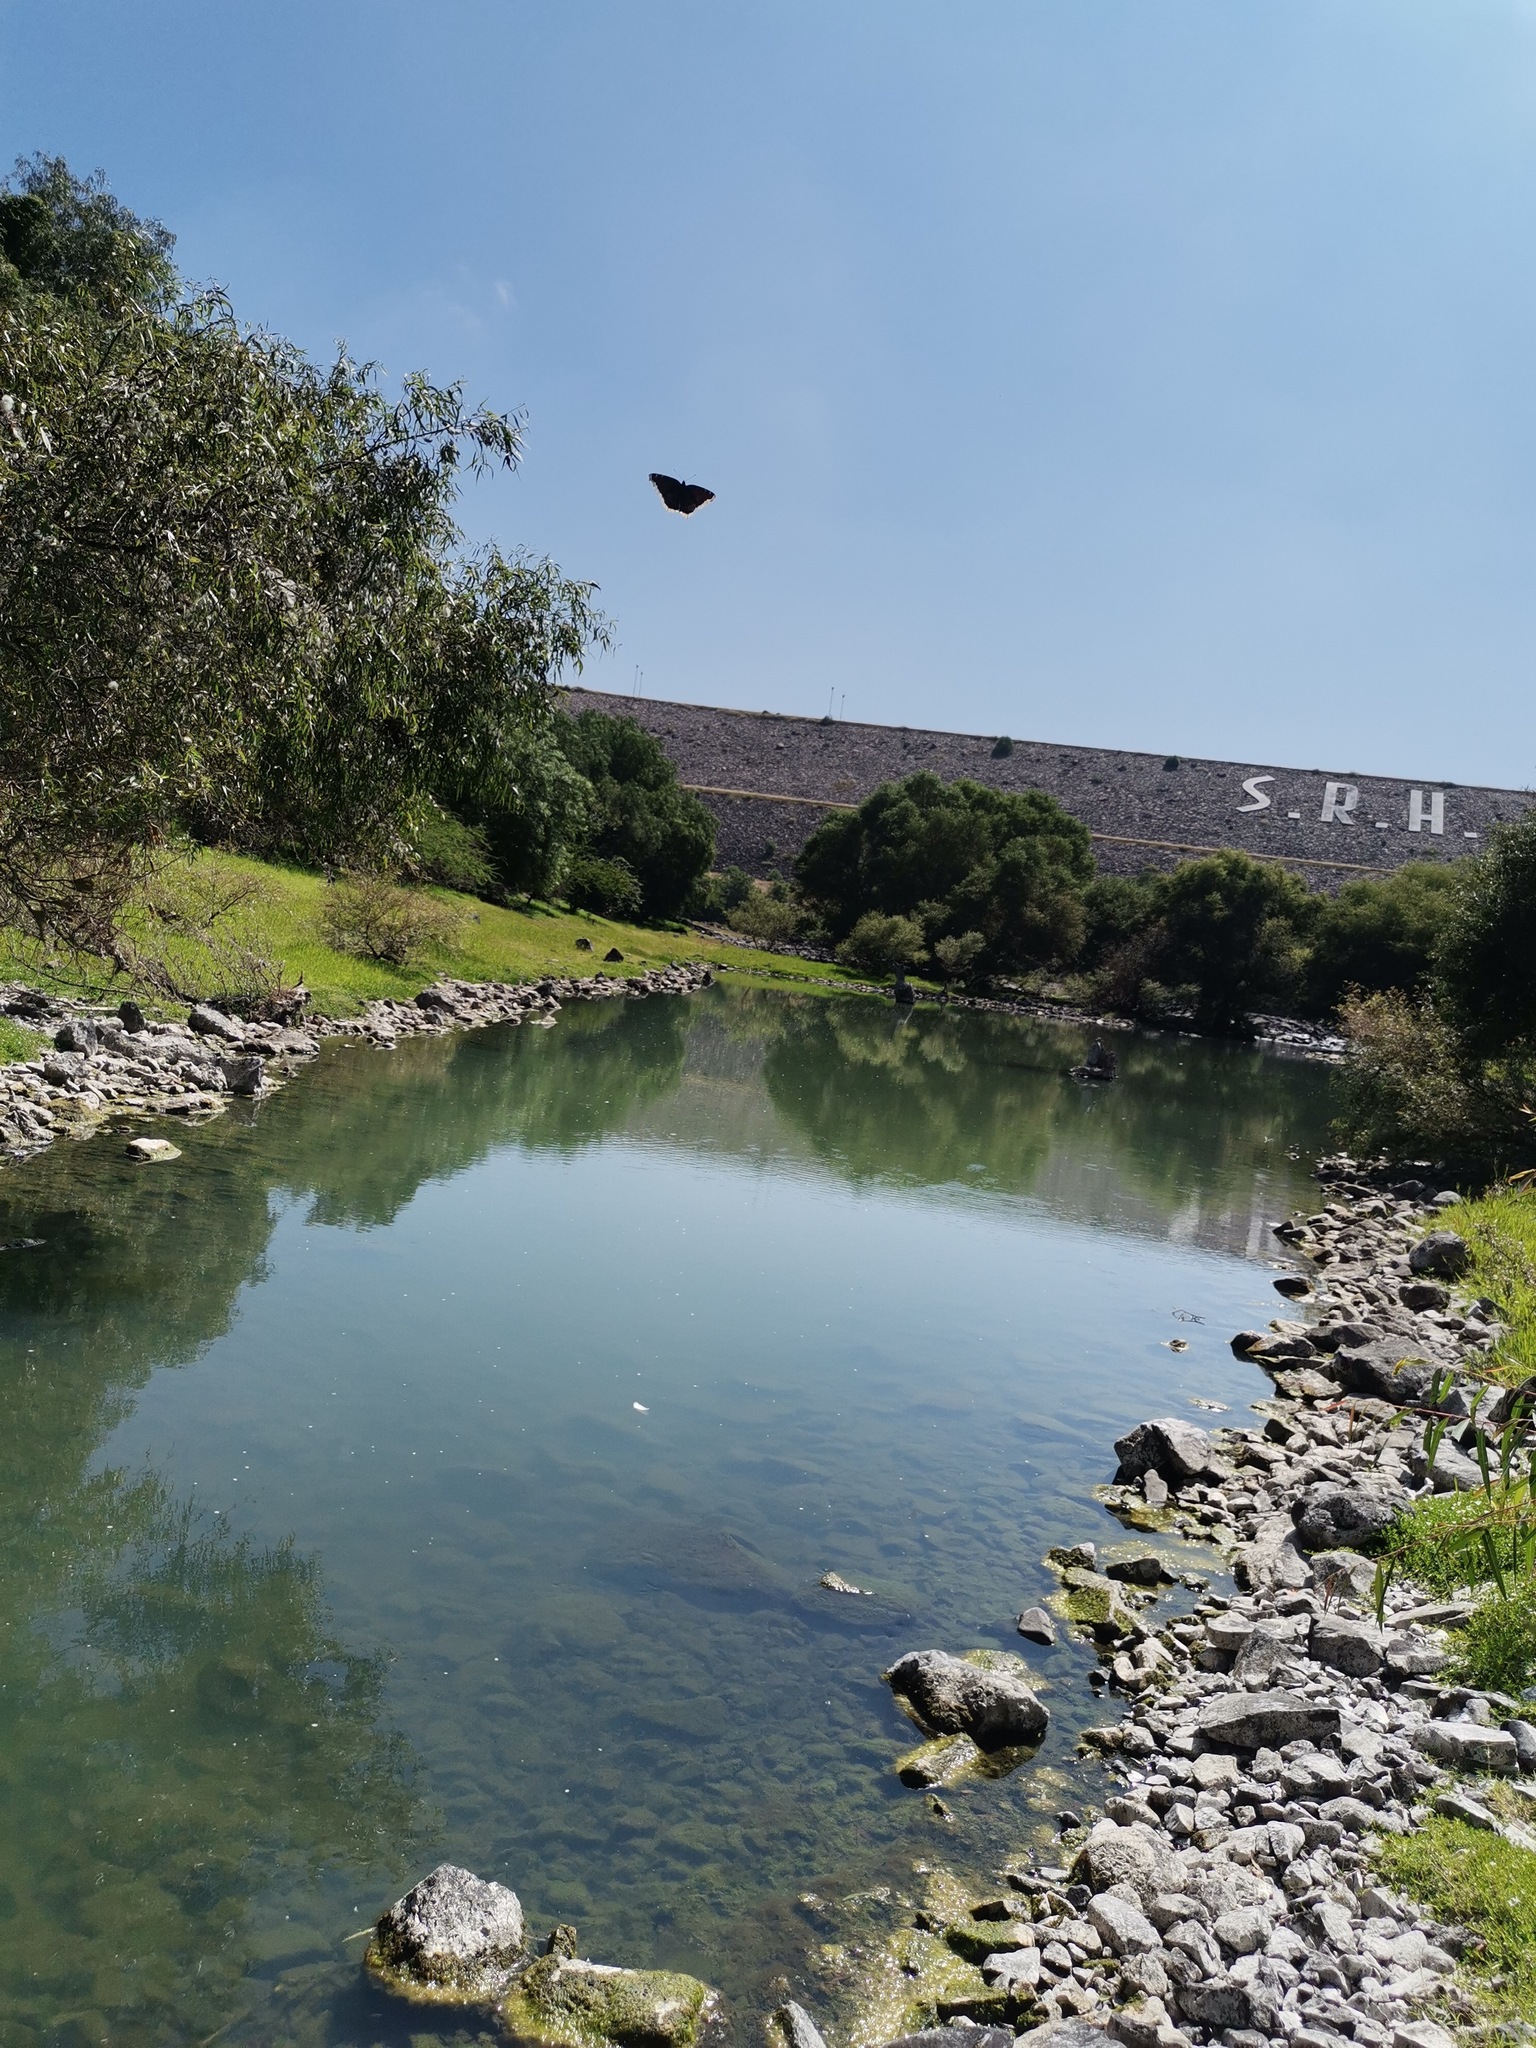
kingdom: Animalia
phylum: Arthropoda
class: Insecta
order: Lepidoptera
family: Nymphalidae
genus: Nymphalis
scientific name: Nymphalis antiopa
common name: Camberwell beauty
